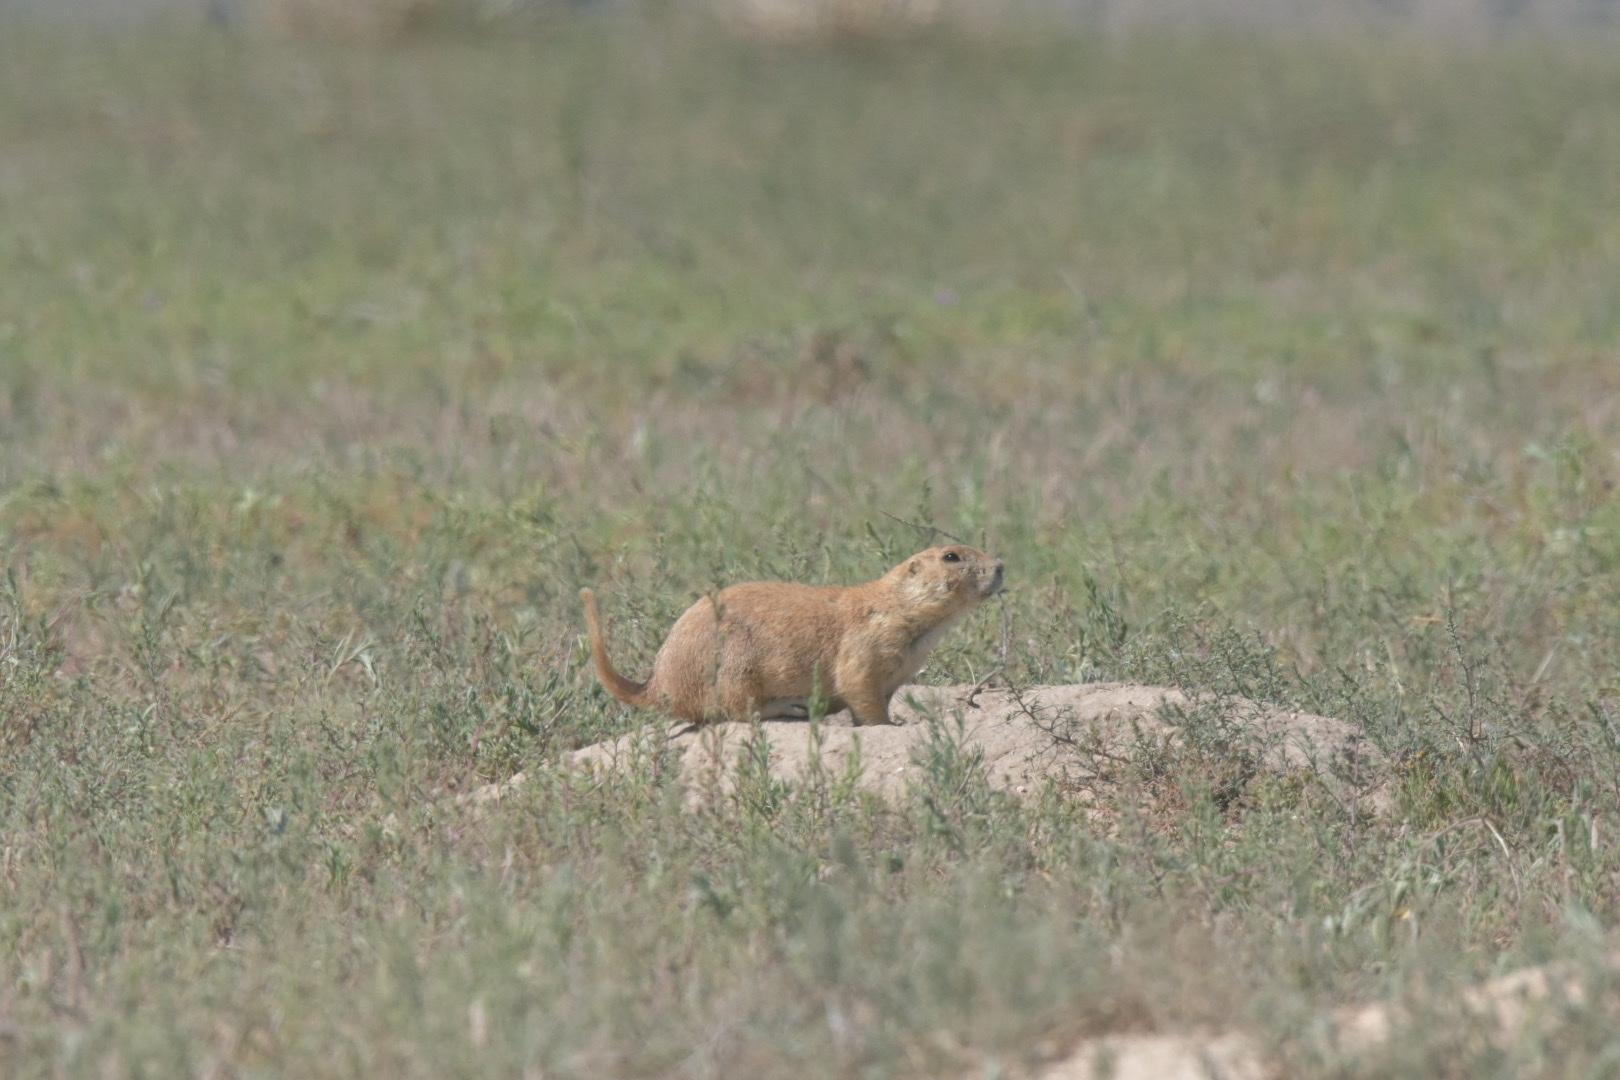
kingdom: Animalia
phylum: Chordata
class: Mammalia
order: Rodentia
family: Sciuridae
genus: Cynomys
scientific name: Cynomys ludovicianus
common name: Black-tailed prairie dog
